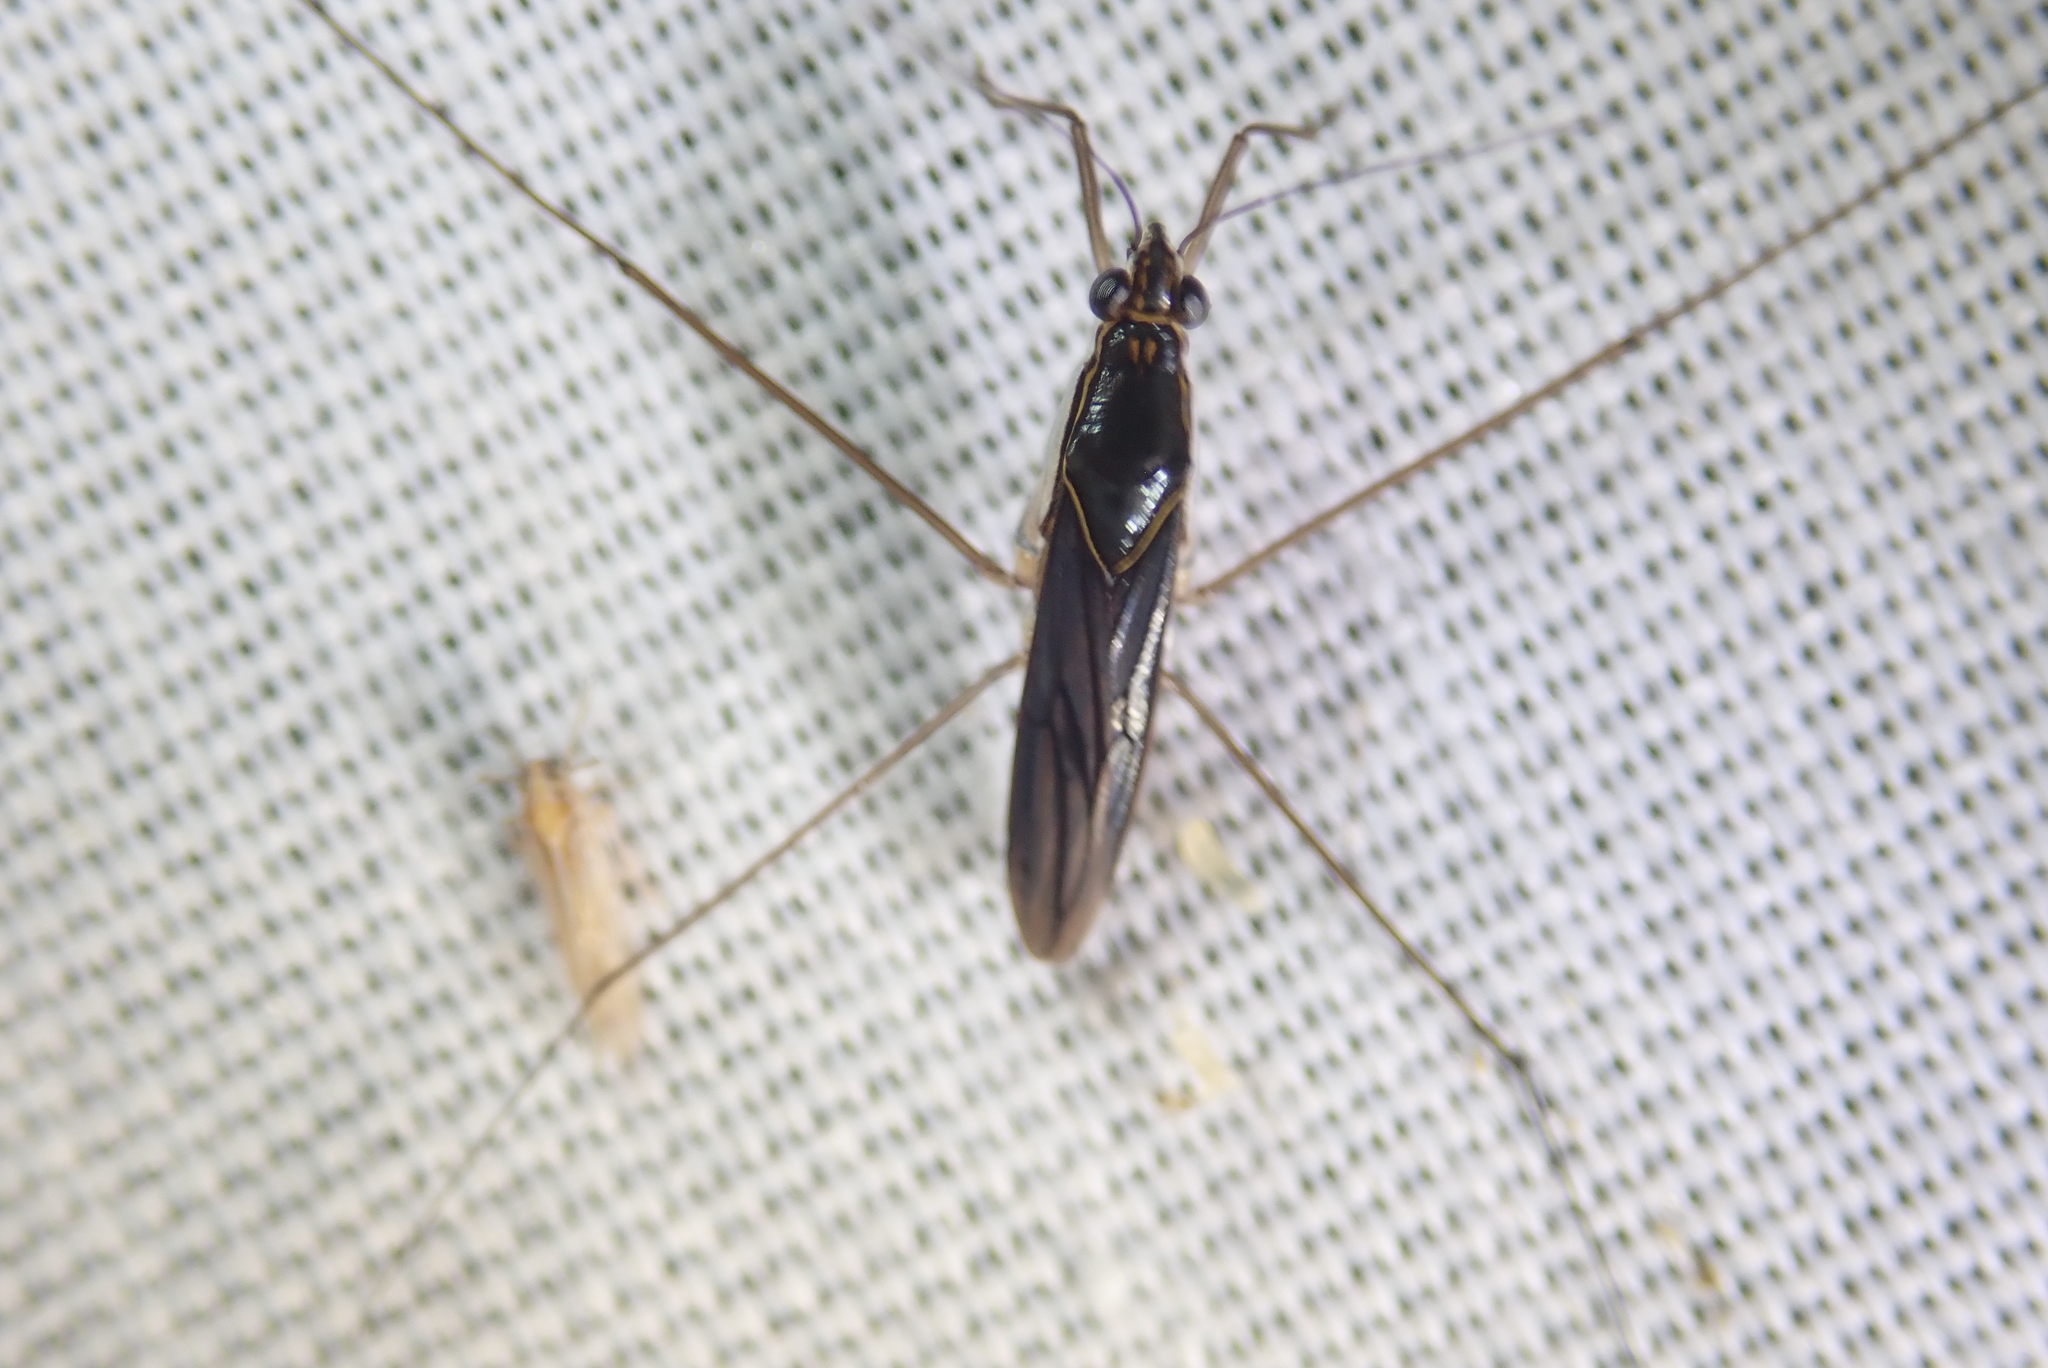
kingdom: Animalia
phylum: Arthropoda
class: Insecta
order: Hemiptera
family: Gerridae
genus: Limnogonus
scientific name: Limnogonus cereiventris
